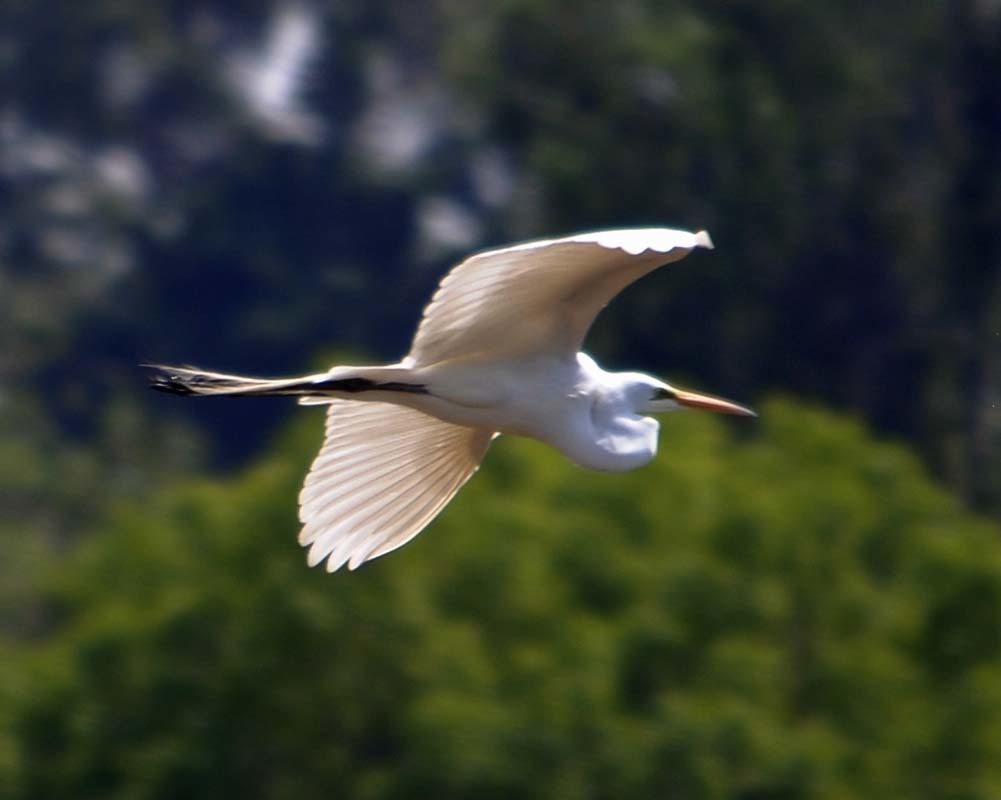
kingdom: Animalia
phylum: Chordata
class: Aves
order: Pelecaniformes
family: Ardeidae
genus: Ardea
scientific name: Ardea alba
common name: Great egret
